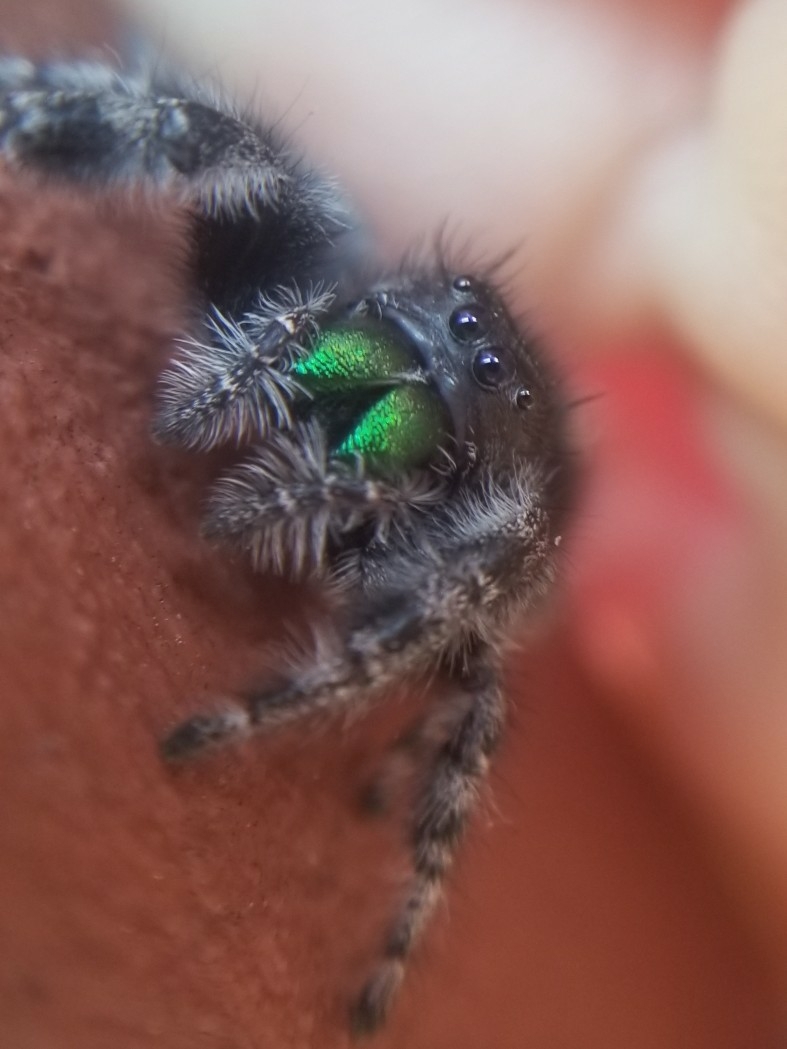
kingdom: Animalia
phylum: Arthropoda
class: Arachnida
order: Araneae
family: Salticidae
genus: Phidippus
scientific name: Phidippus audax
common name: Bold jumper
